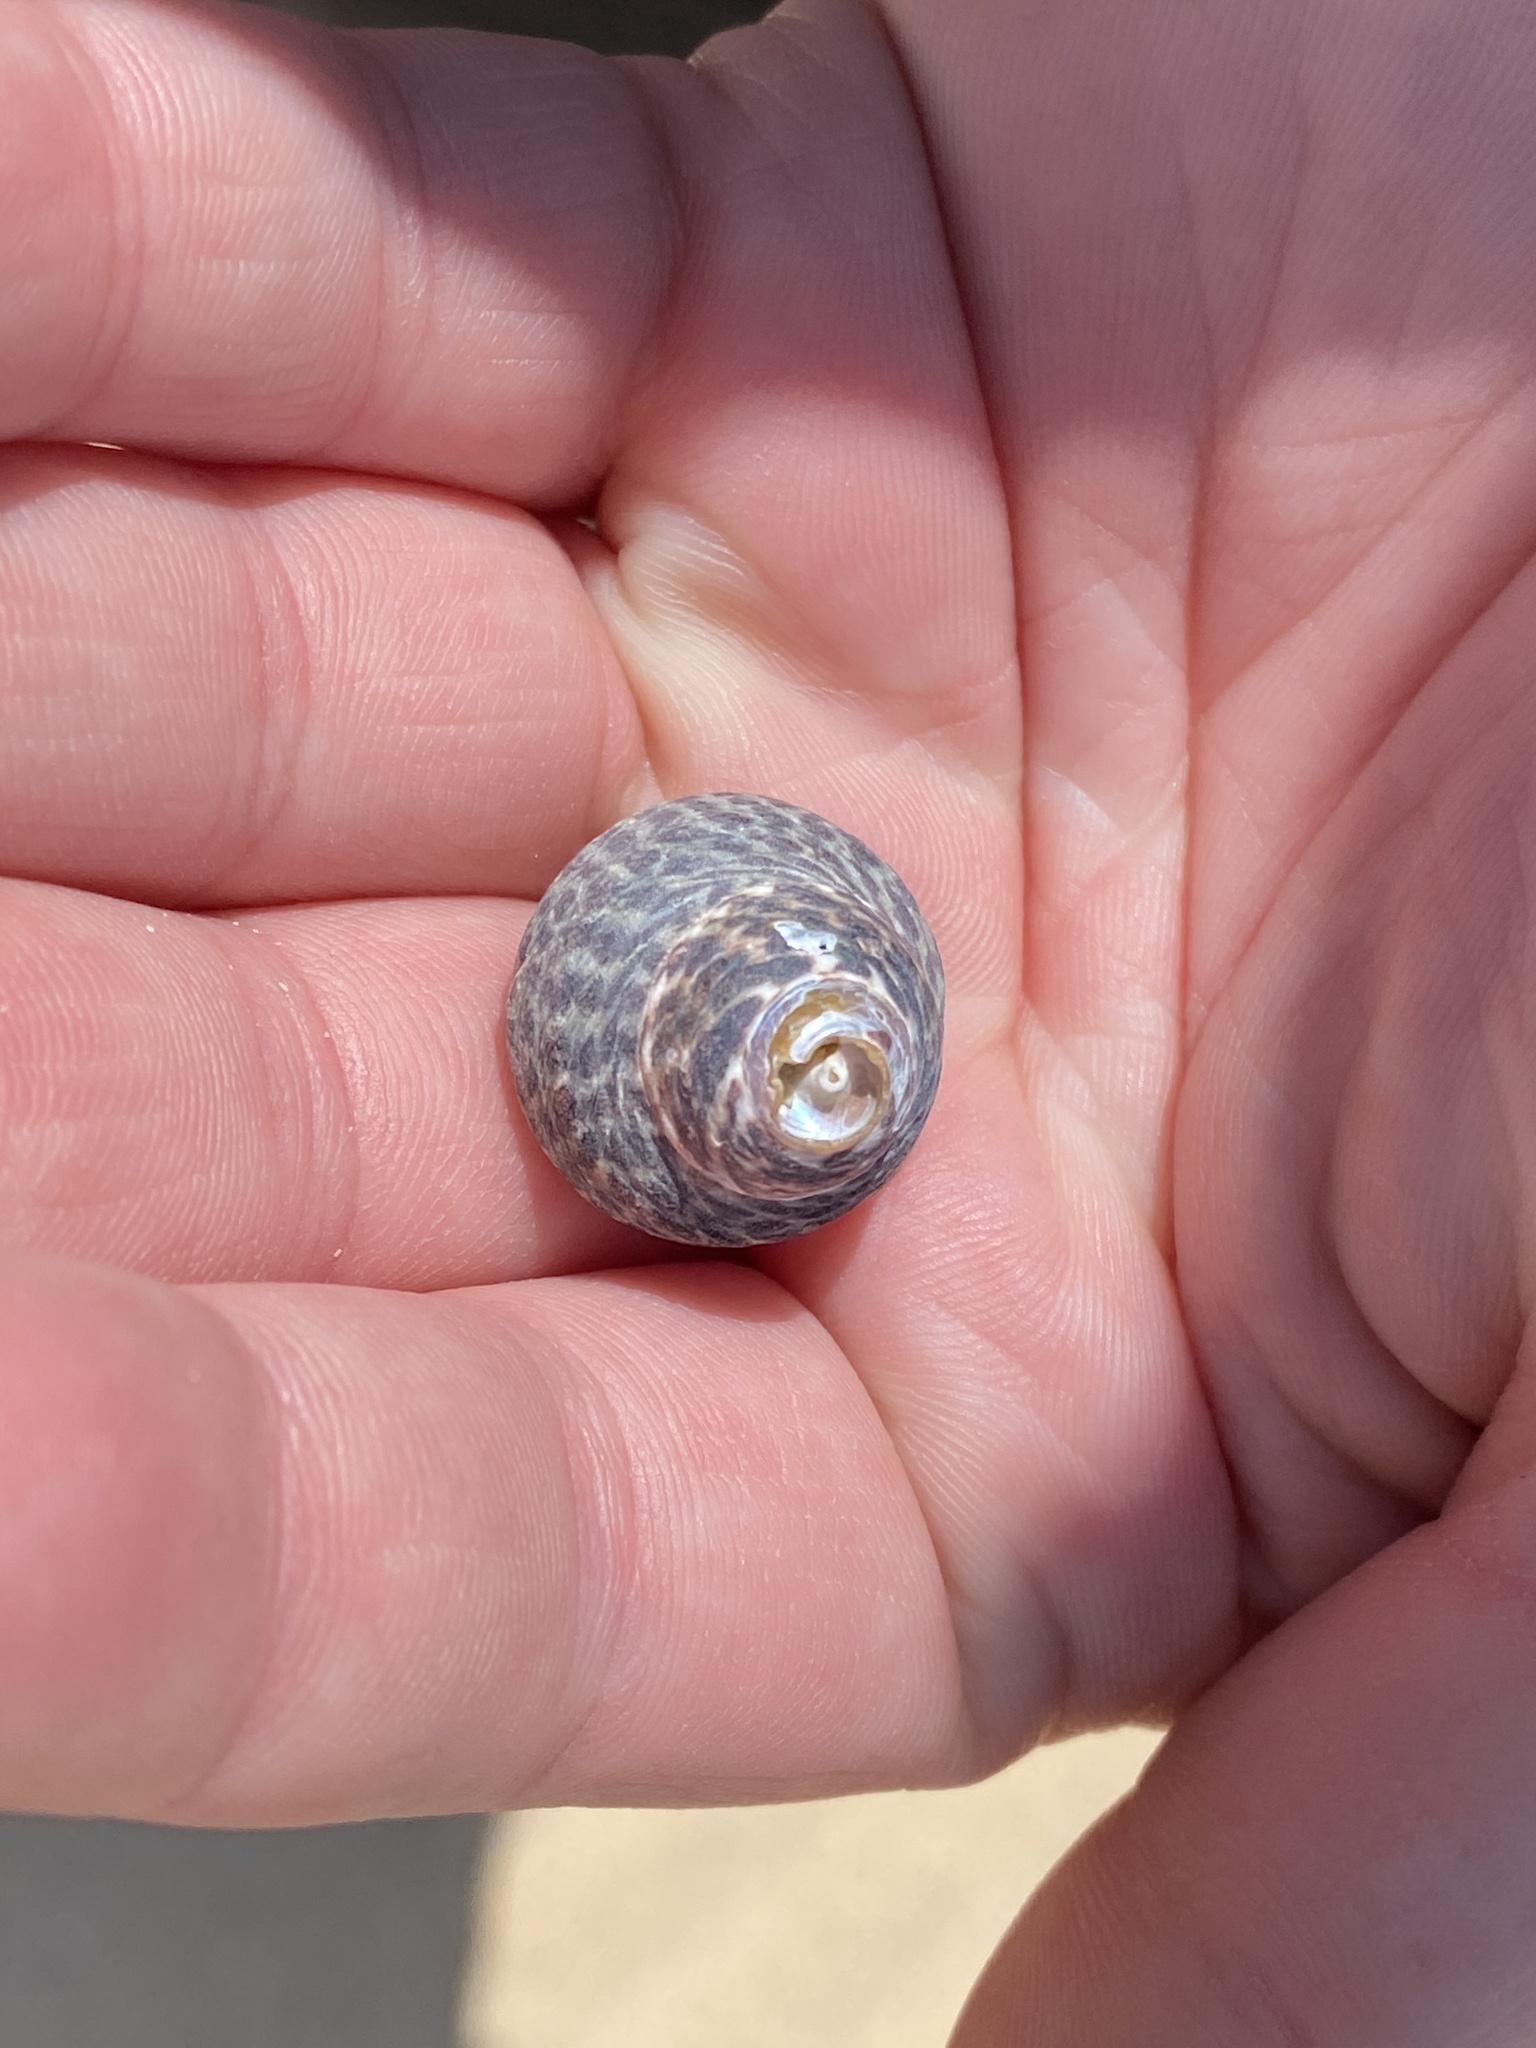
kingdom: Animalia
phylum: Mollusca
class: Gastropoda
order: Trochida
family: Trochidae
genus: Phorcus
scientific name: Phorcus sauciatus
